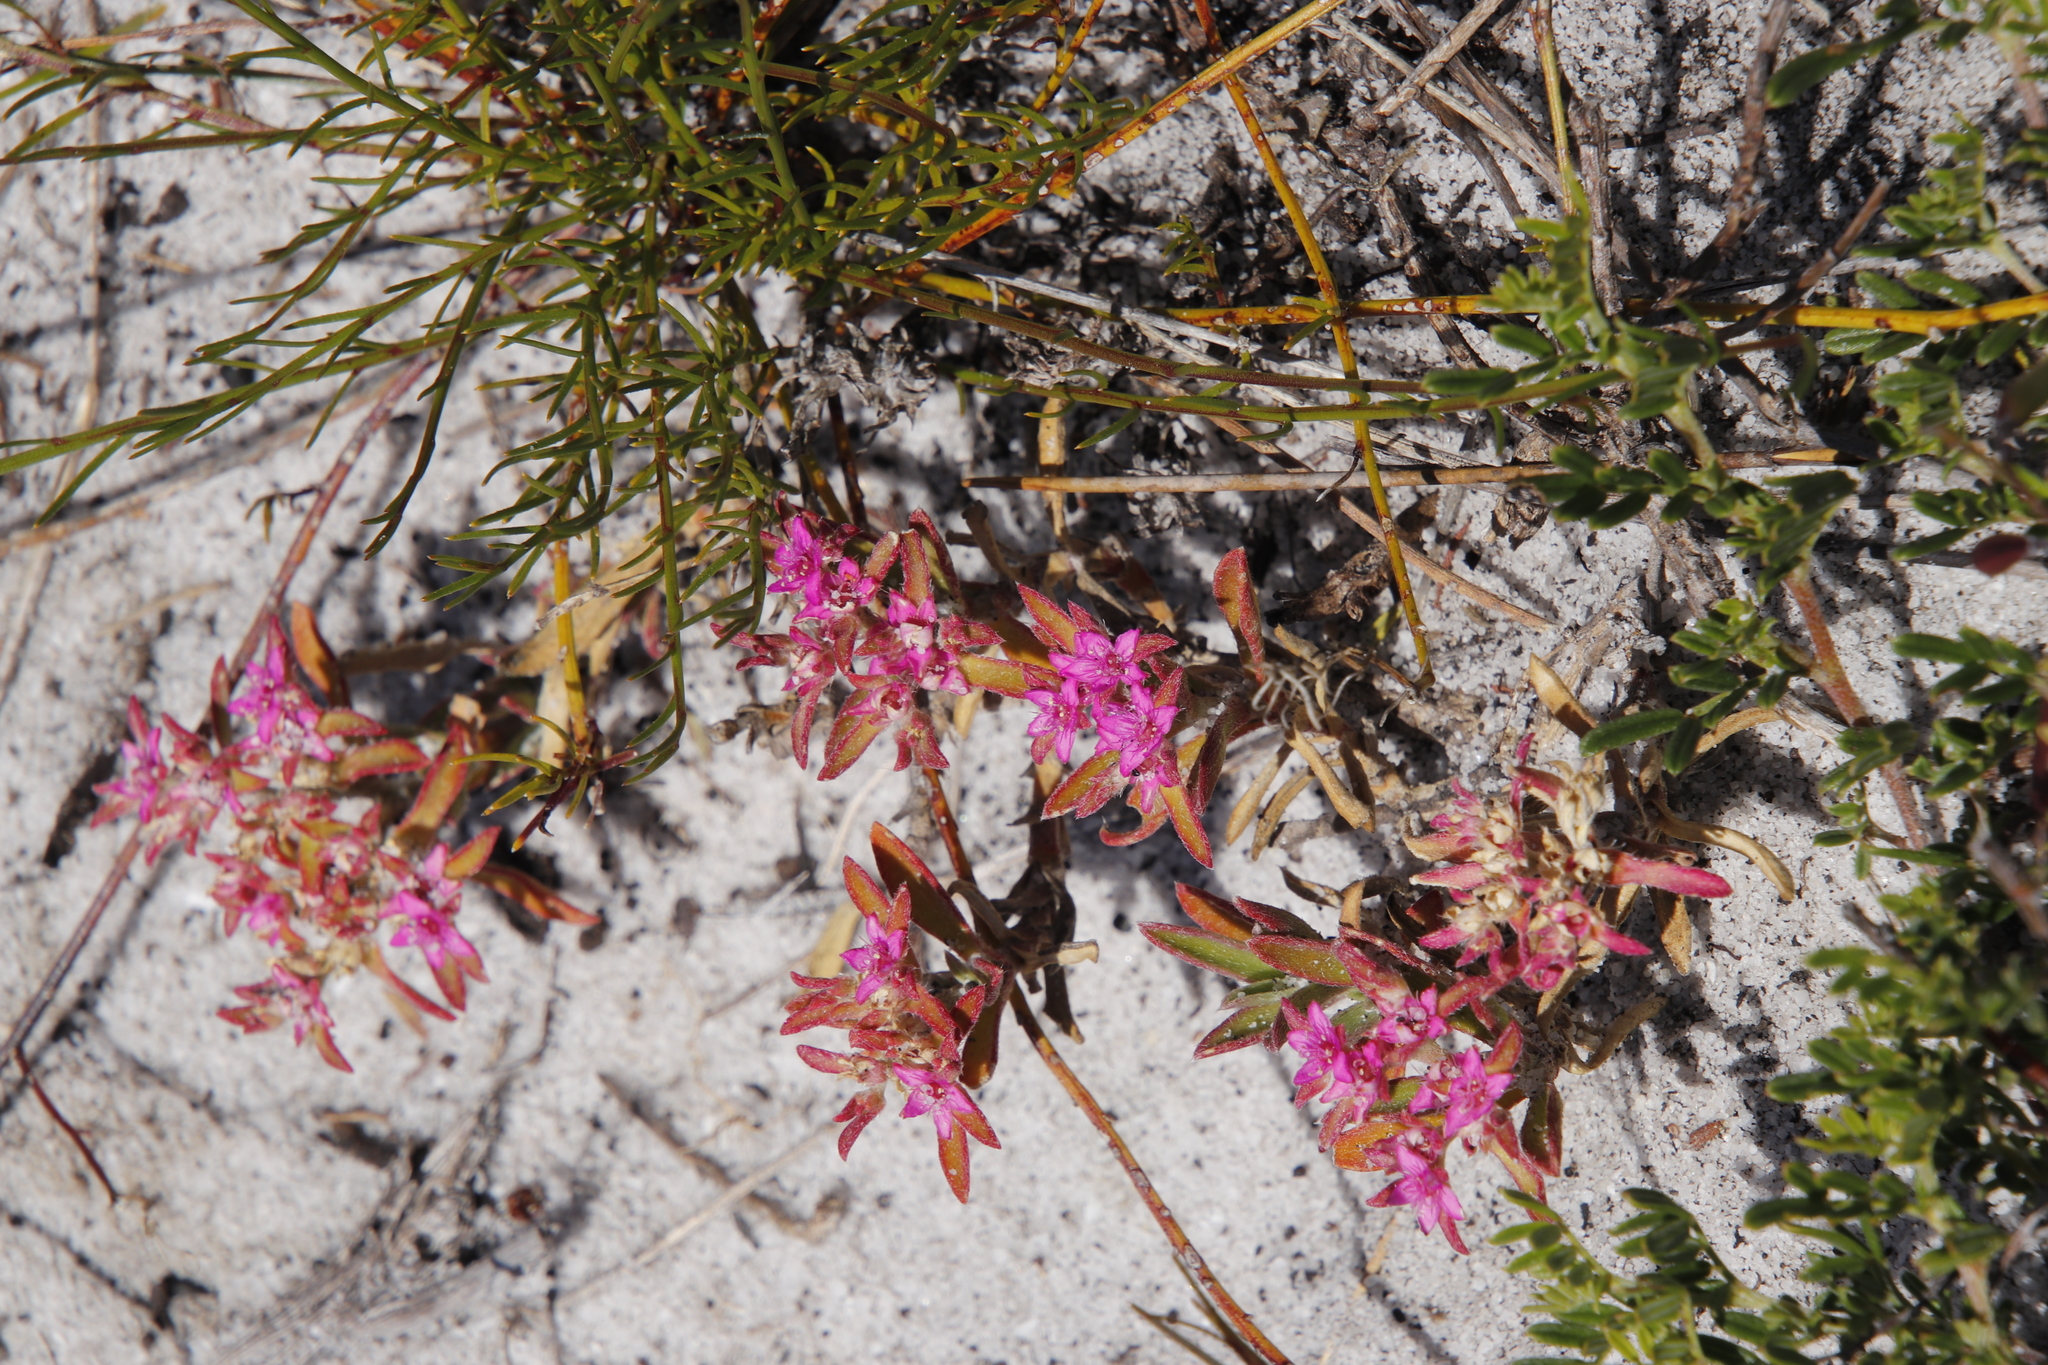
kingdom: Plantae
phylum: Tracheophyta
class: Magnoliopsida
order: Caryophyllales
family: Aizoaceae
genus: Aizoon
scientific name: Aizoon paniculatum
